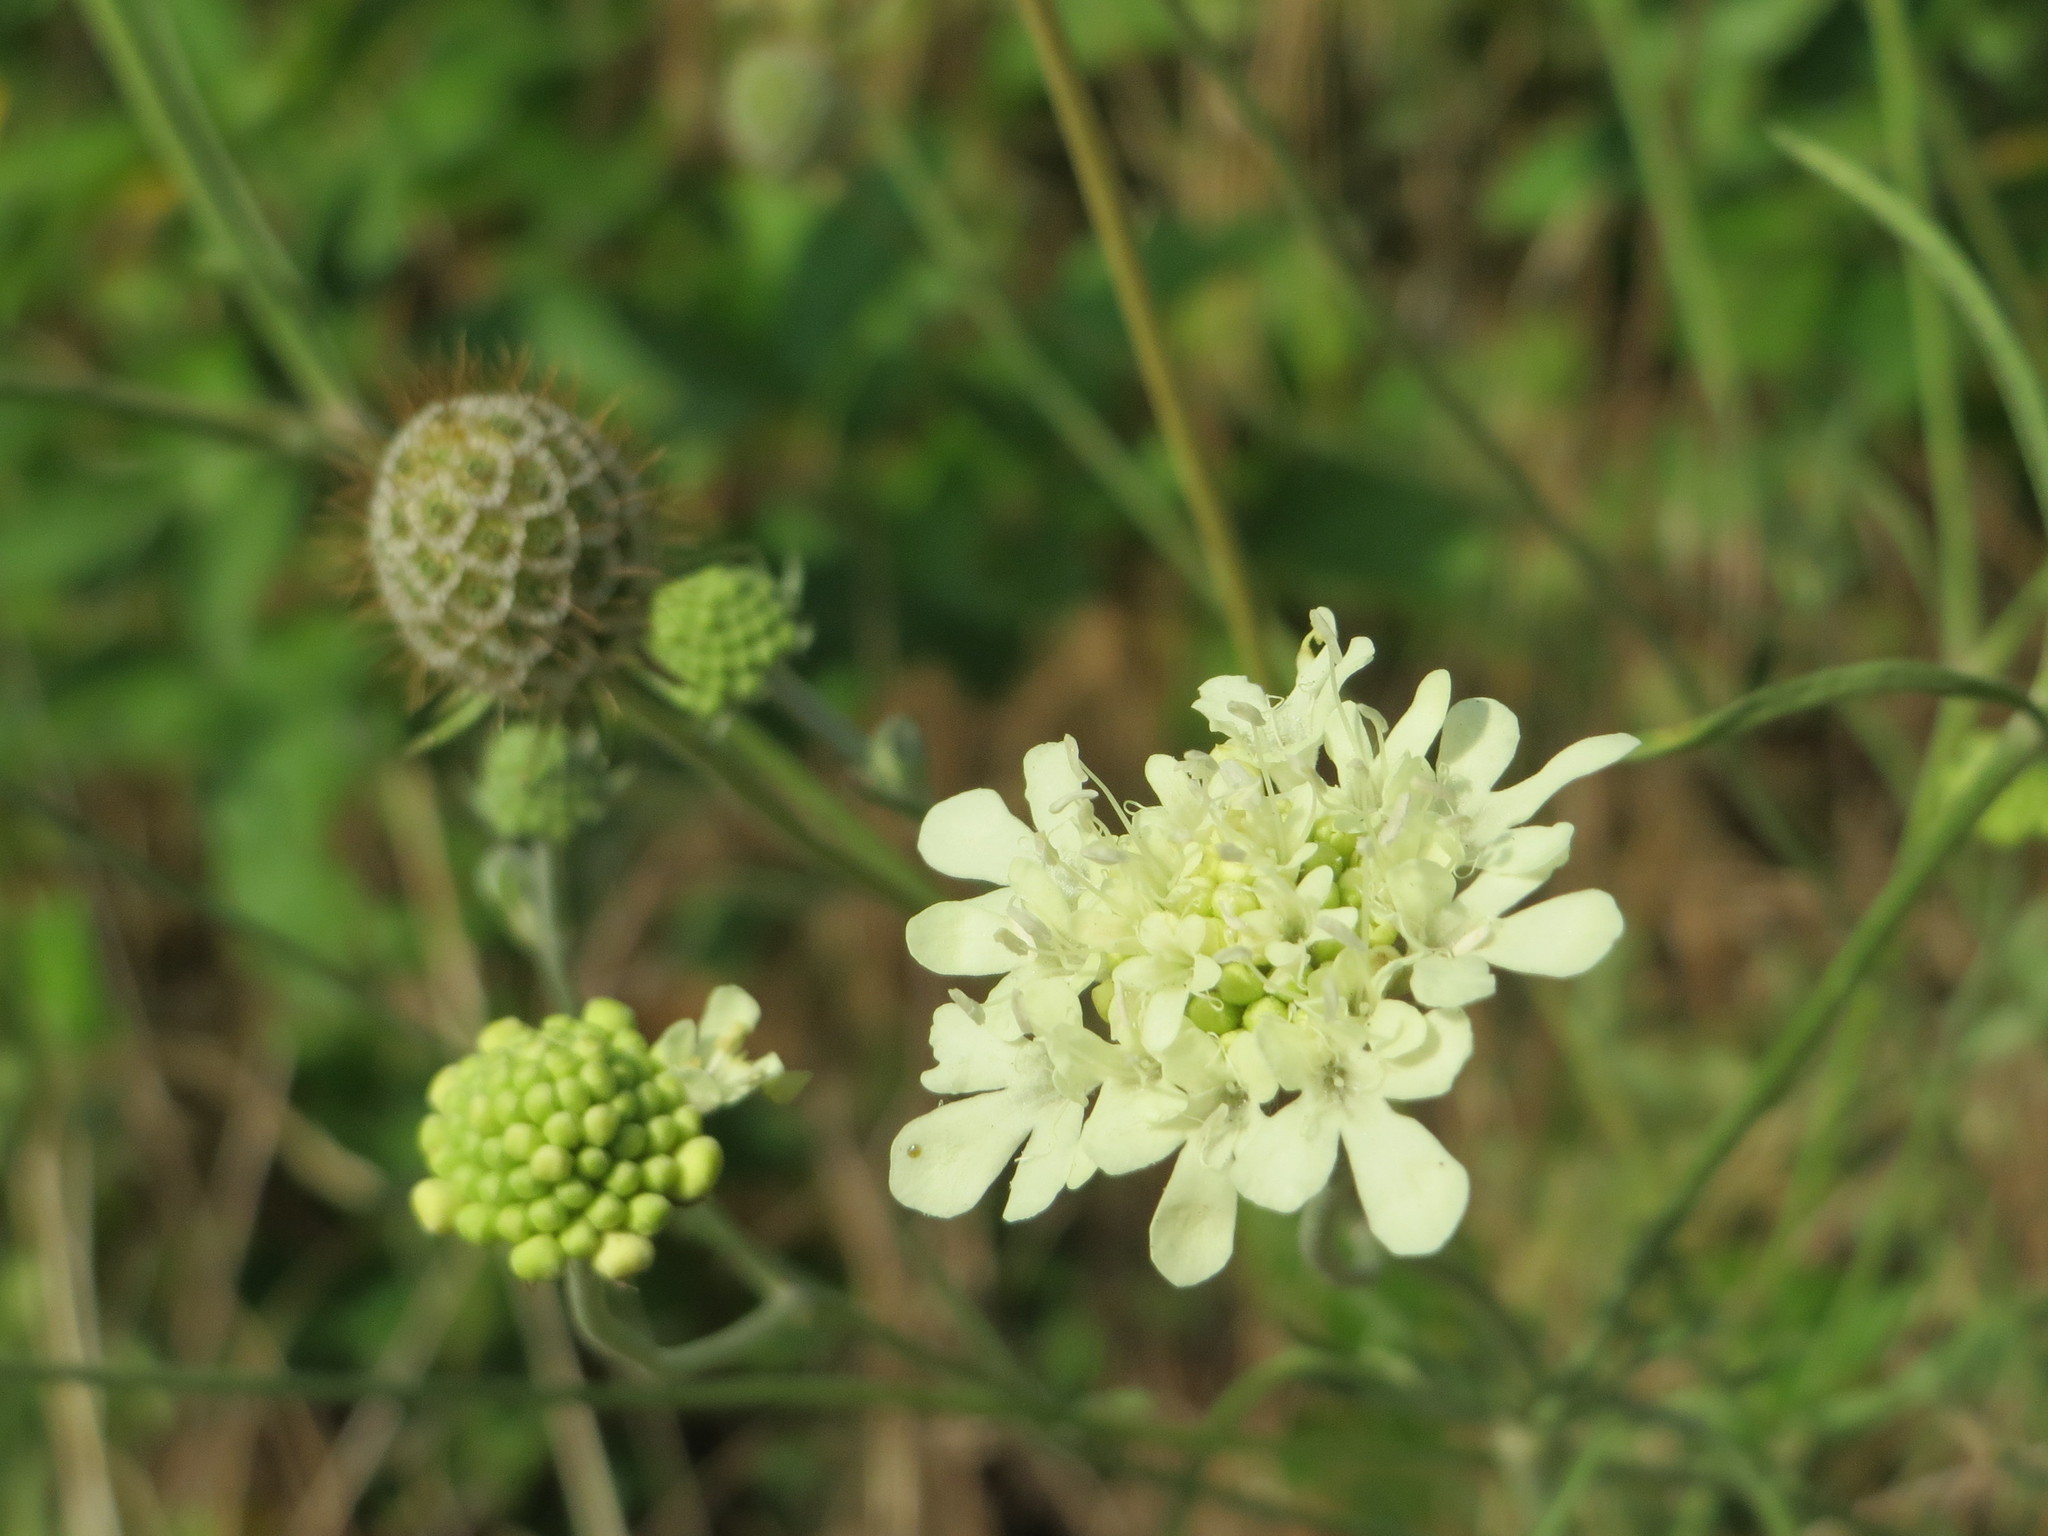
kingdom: Plantae
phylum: Tracheophyta
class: Magnoliopsida
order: Dipsacales
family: Caprifoliaceae
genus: Scabiosa
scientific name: Scabiosa ochroleuca
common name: Cream pincushions
